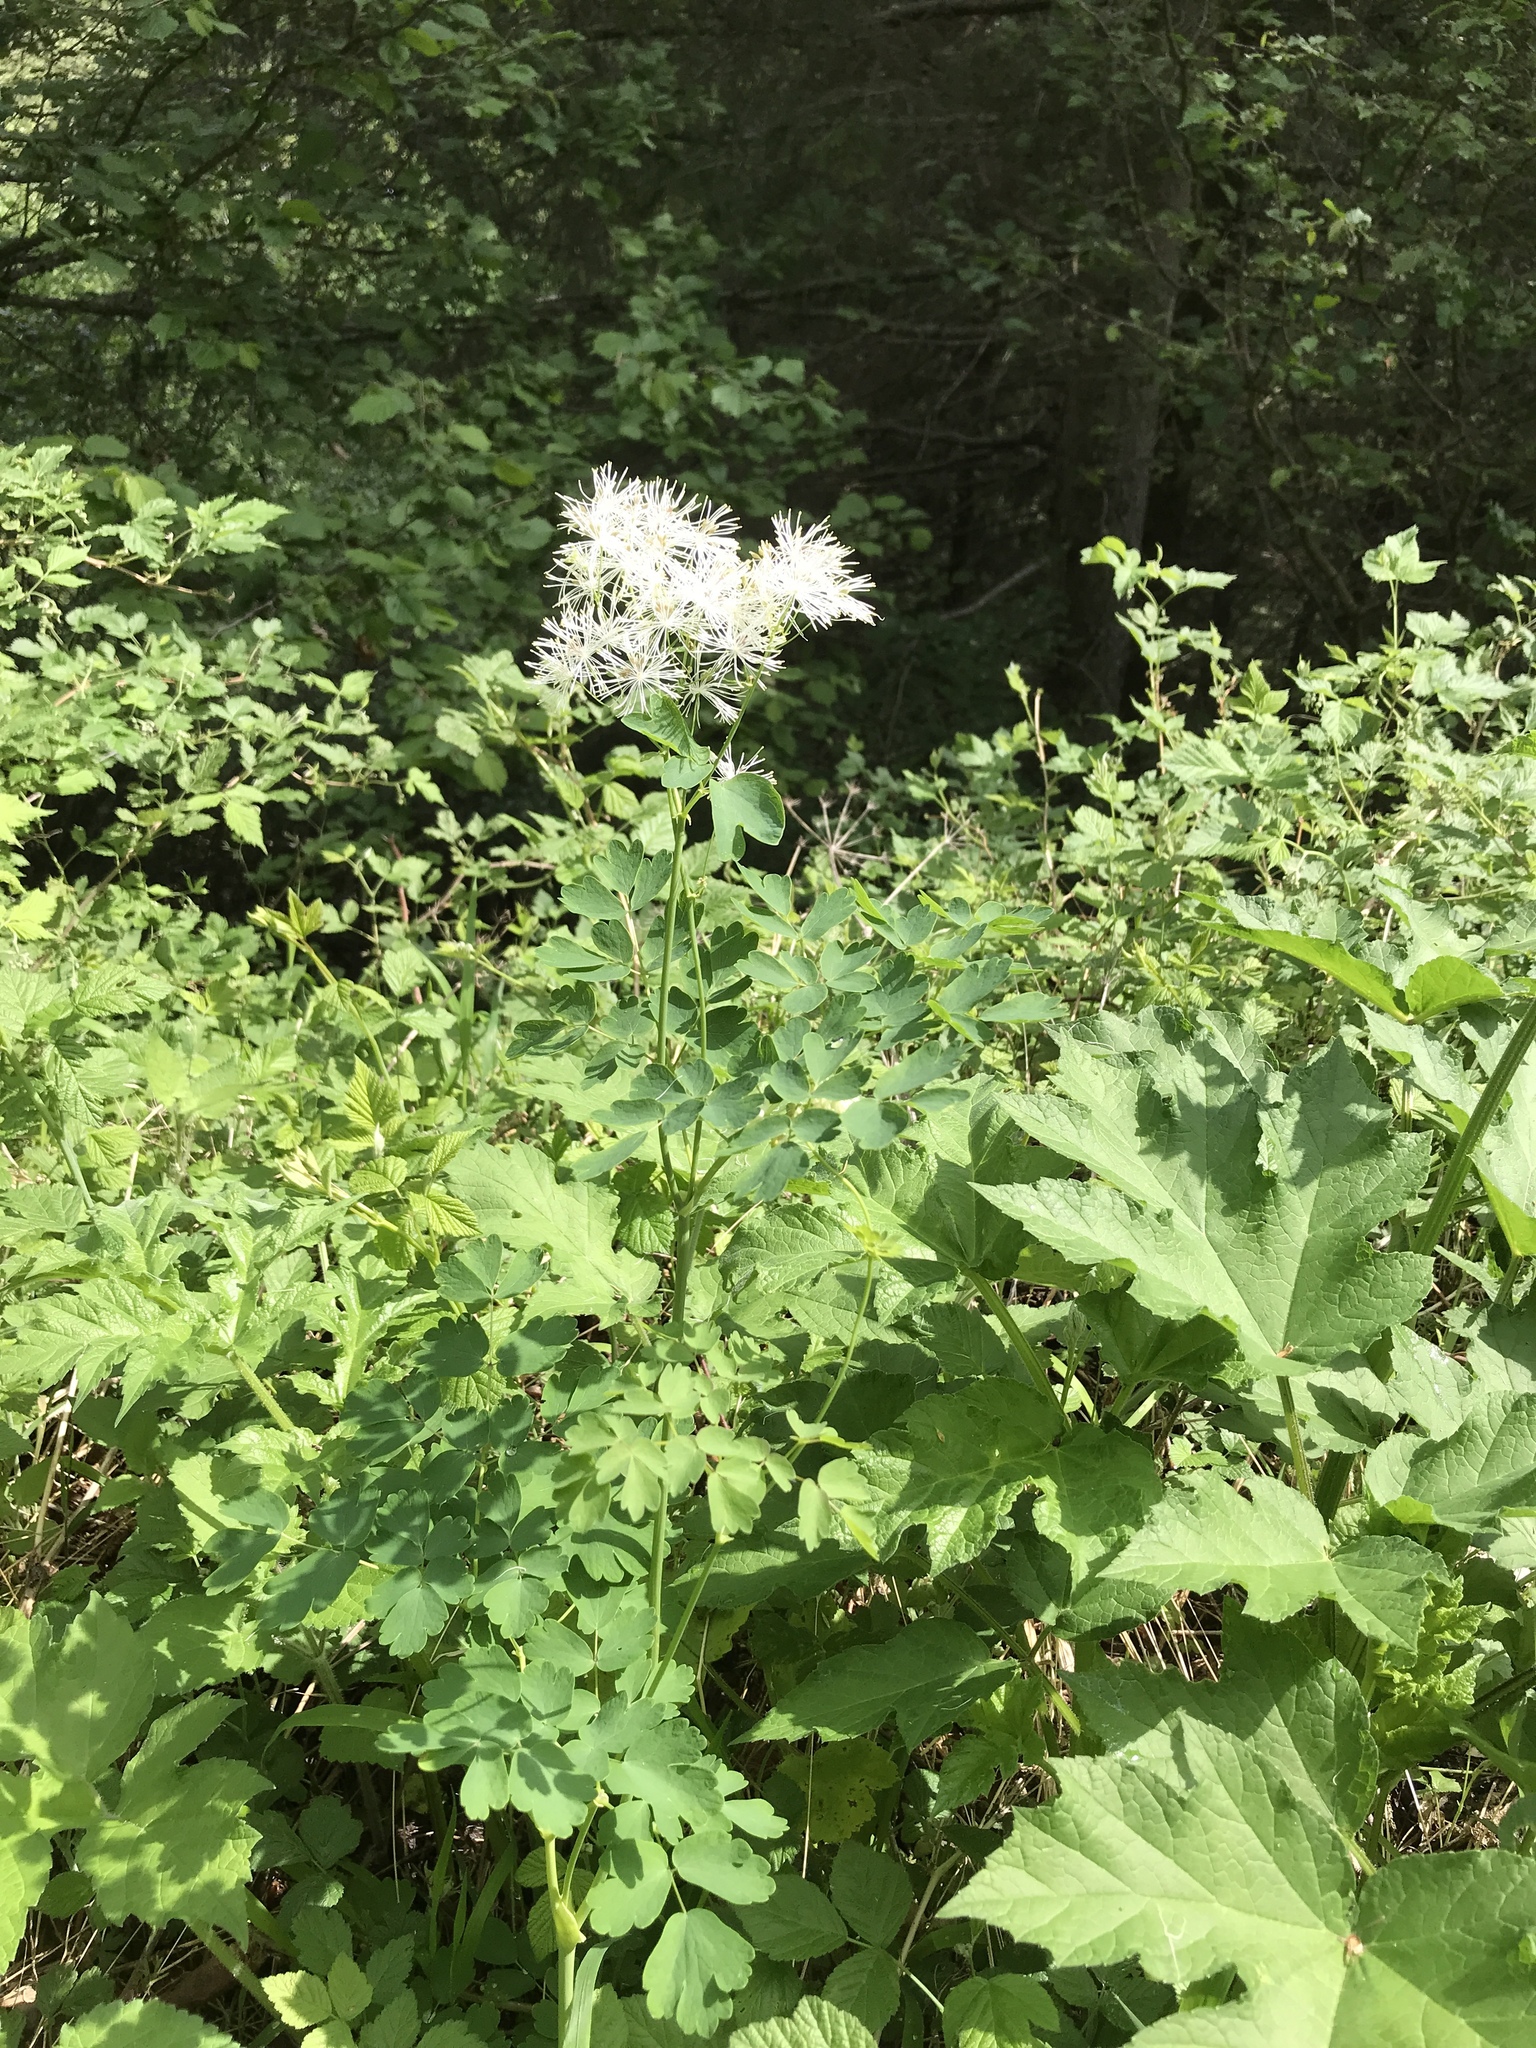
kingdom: Plantae
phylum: Tracheophyta
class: Magnoliopsida
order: Ranunculales
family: Ranunculaceae
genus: Thalictrum
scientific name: Thalictrum aquilegiifolium
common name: French meadow-rue
